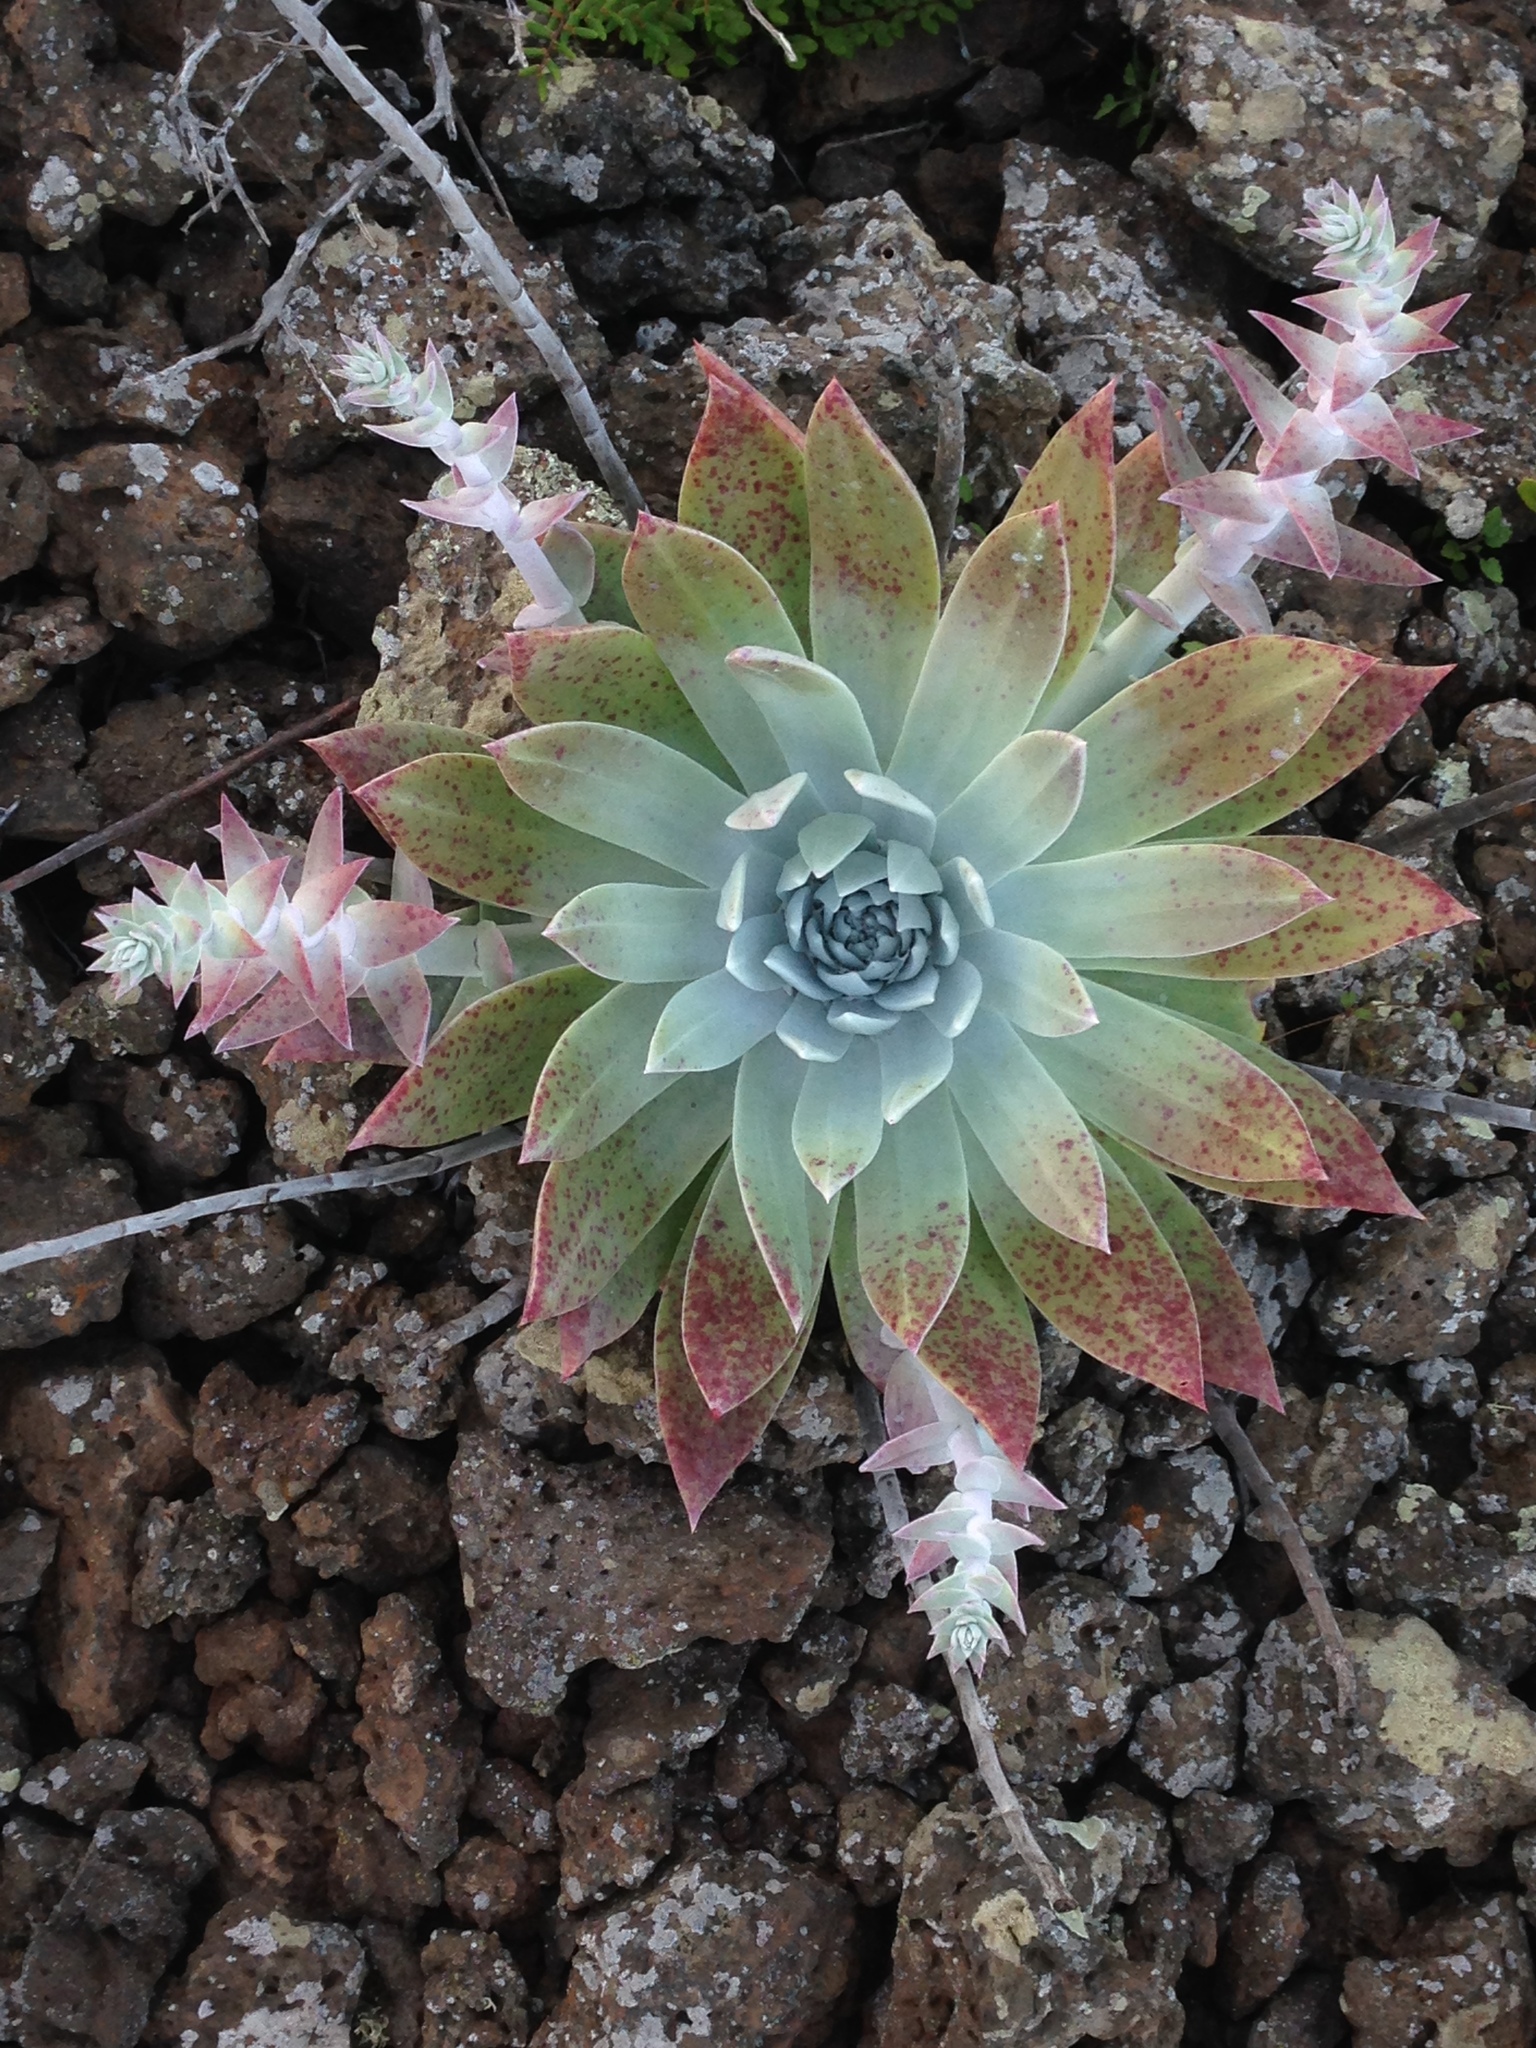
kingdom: Plantae
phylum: Tracheophyta
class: Magnoliopsida
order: Saxifragales
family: Crassulaceae
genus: Dudleya
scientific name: Dudleya anthonyi
